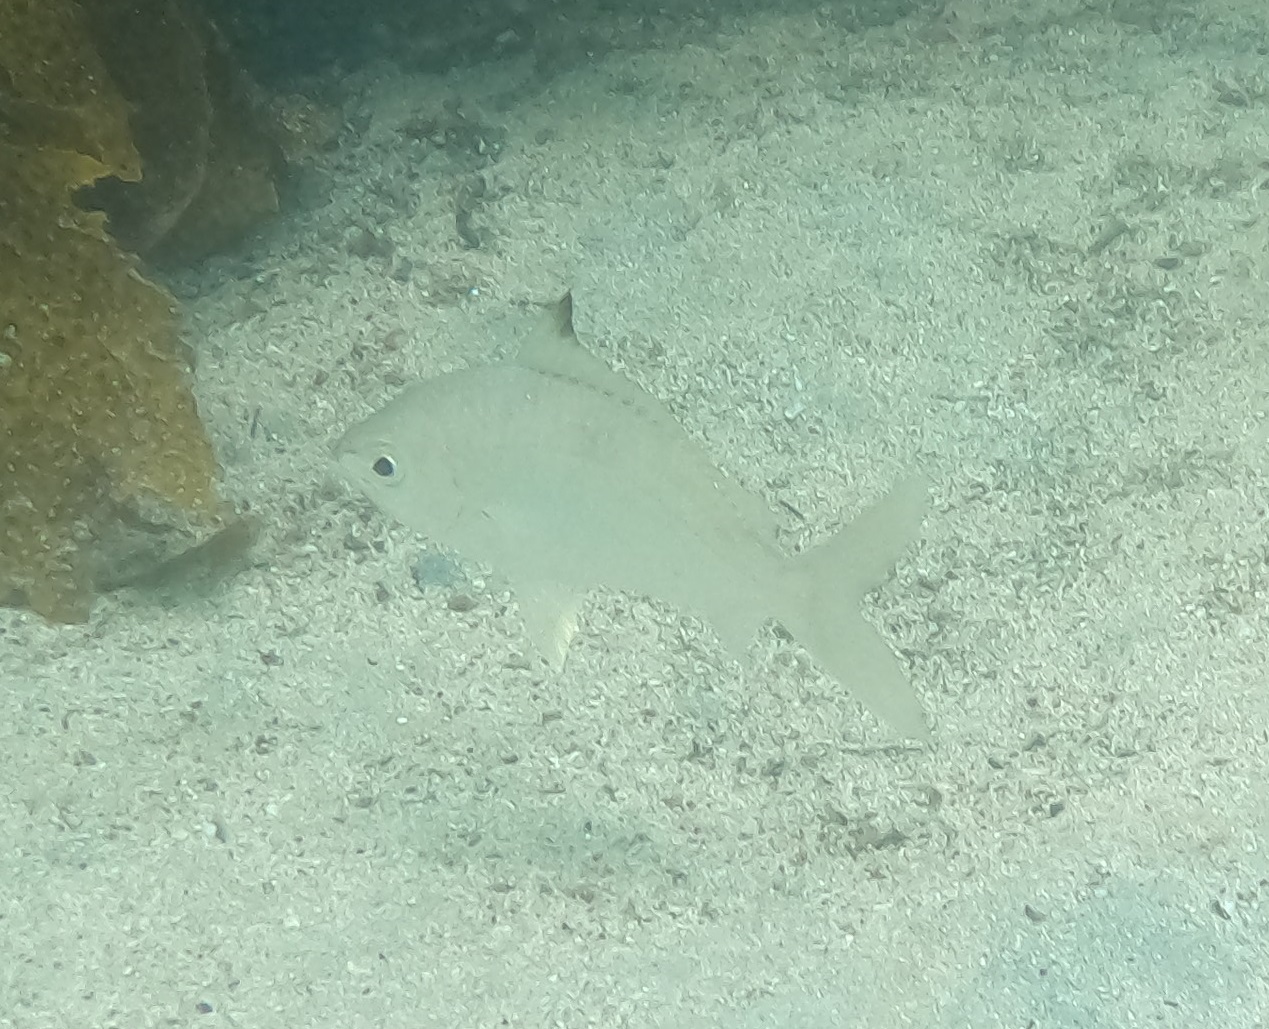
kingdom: Animalia
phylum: Chordata
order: Perciformes
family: Gerreidae
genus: Gerres
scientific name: Gerres subfasciatus
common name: Common silver belly
